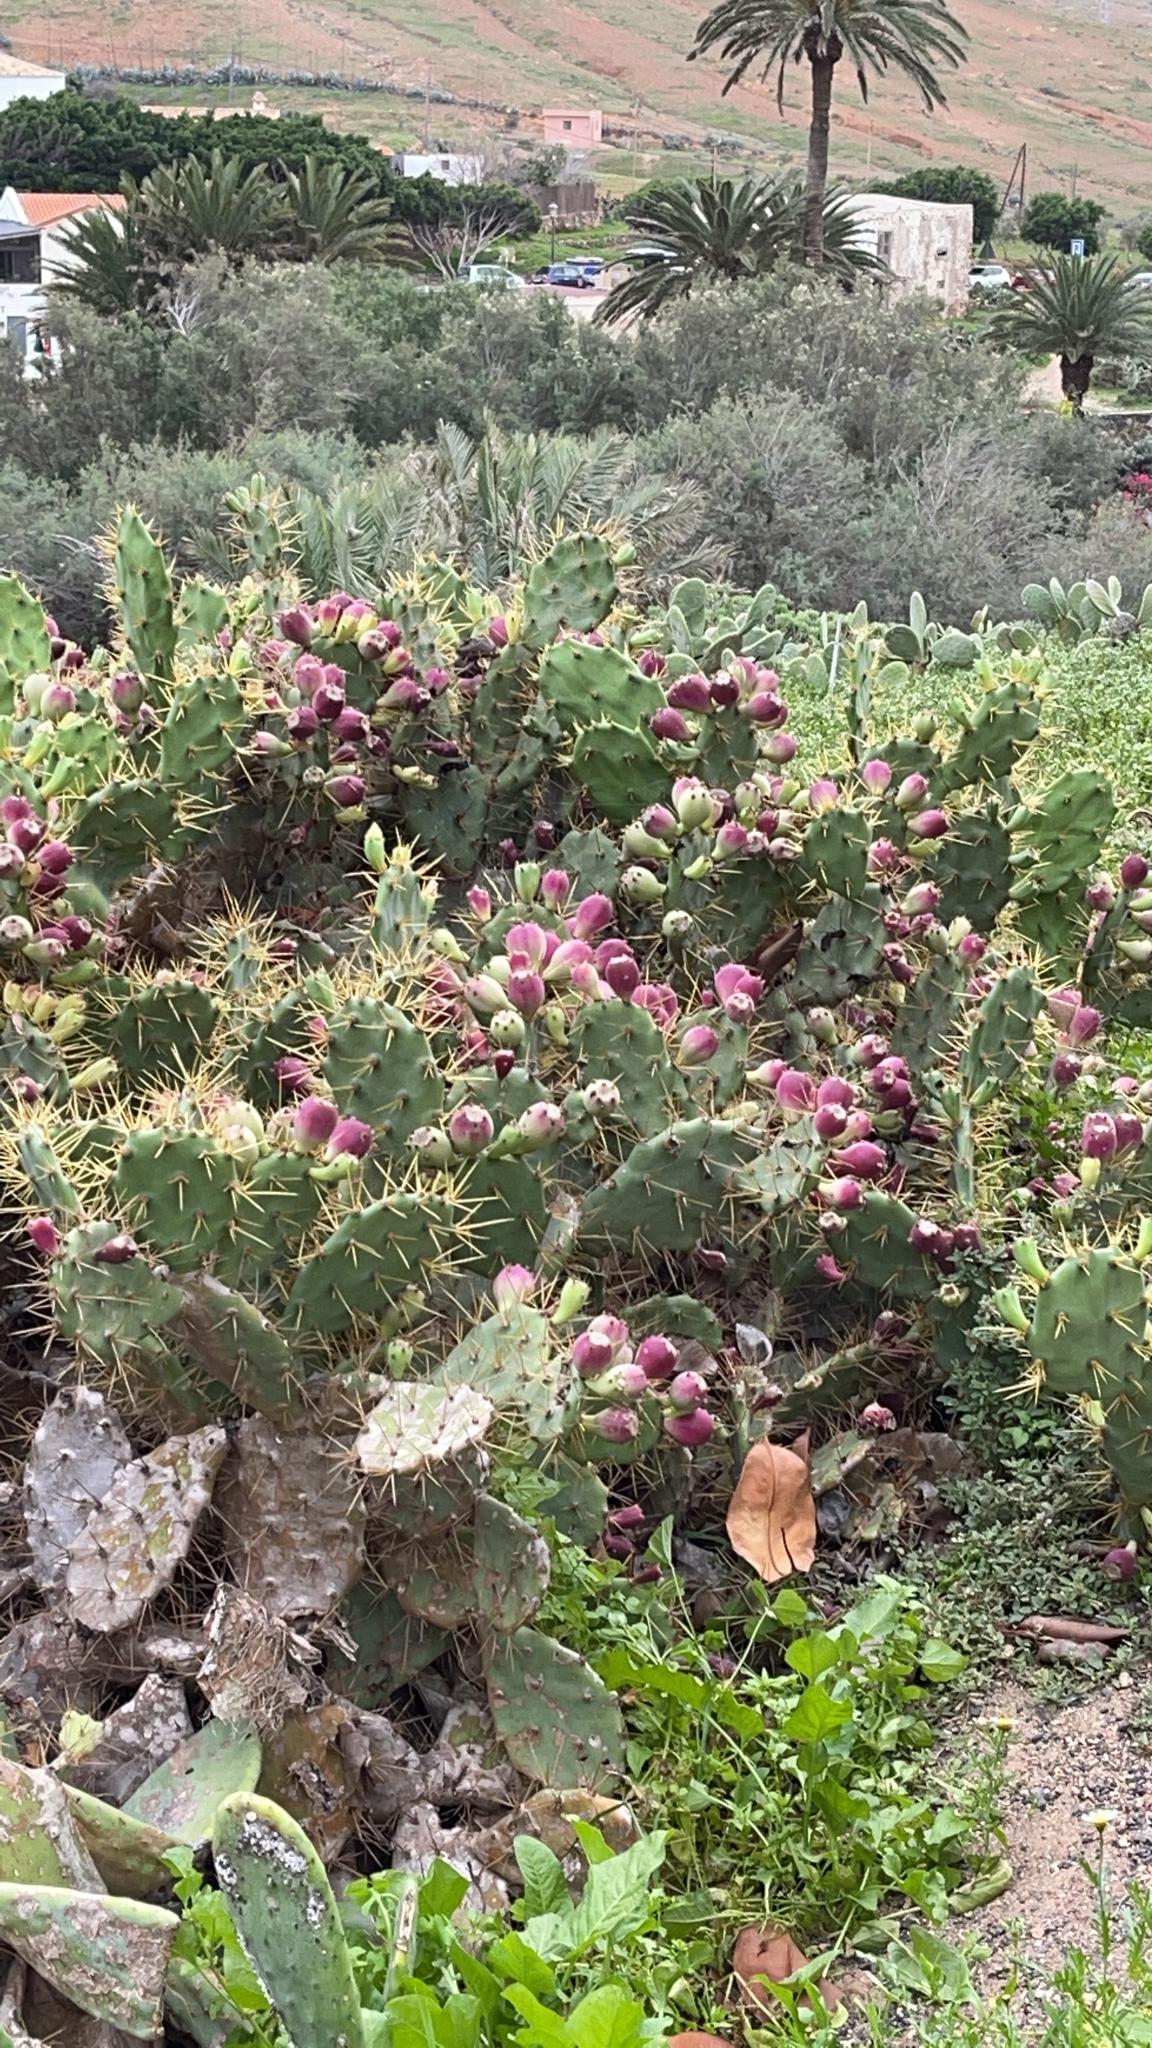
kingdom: Plantae
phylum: Tracheophyta
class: Magnoliopsida
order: Caryophyllales
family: Cactaceae
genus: Opuntia
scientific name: Opuntia stricta
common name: Erect pricklypear
